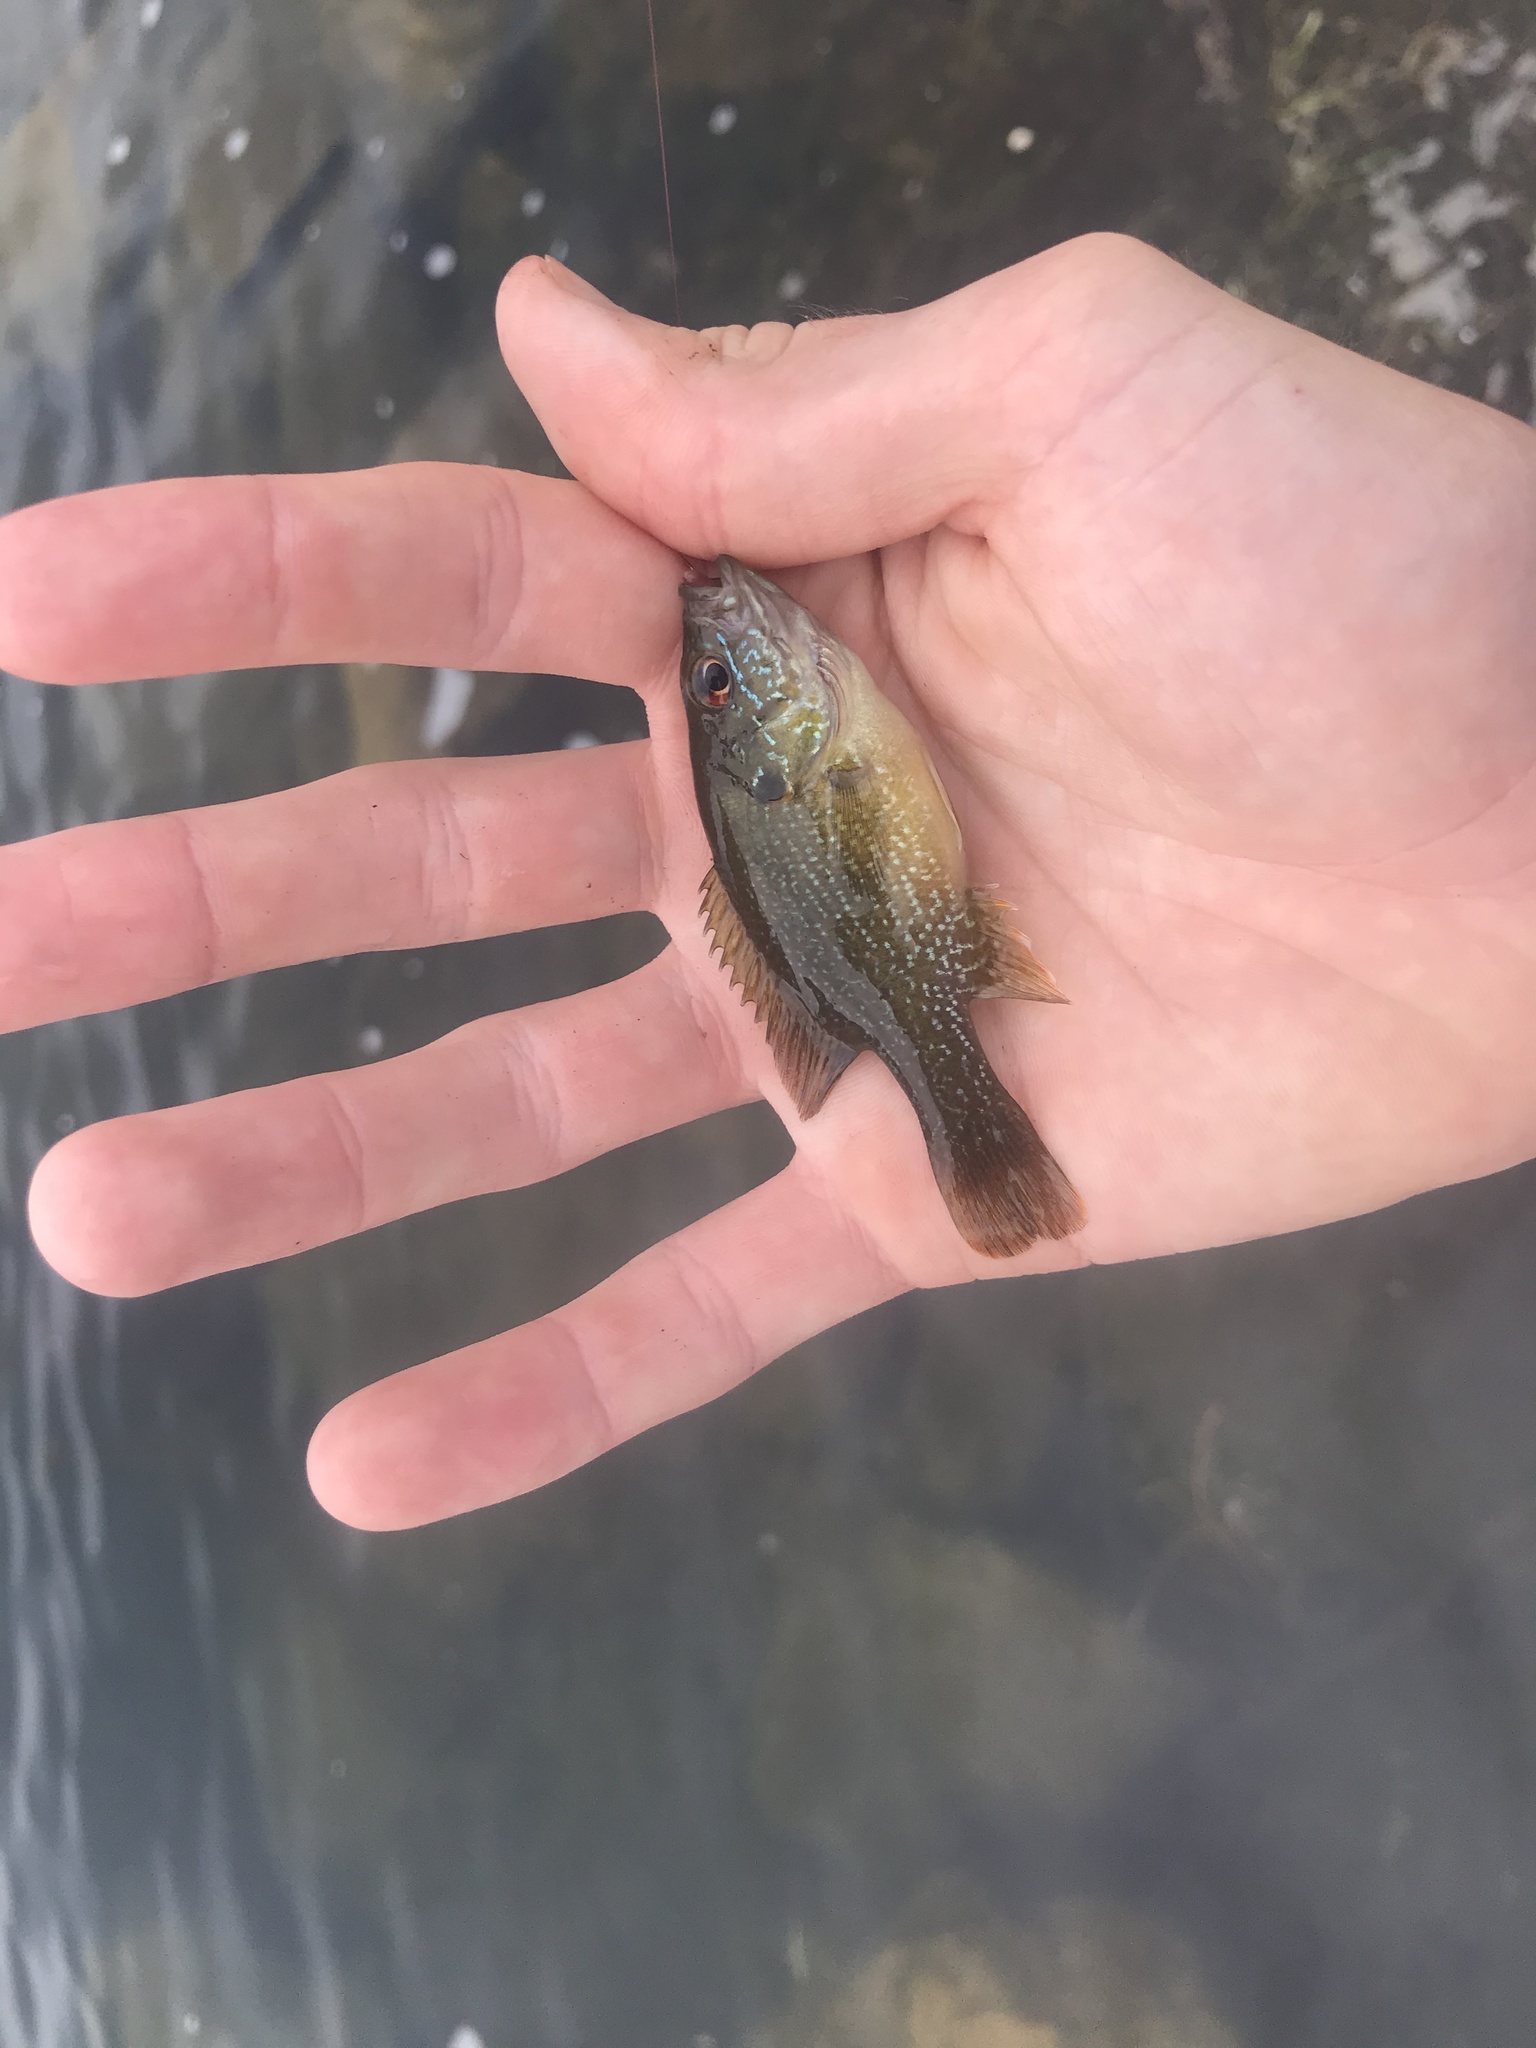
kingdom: Animalia
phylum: Chordata
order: Perciformes
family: Centrarchidae
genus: Lepomis
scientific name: Lepomis cyanellus
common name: Green sunfish
